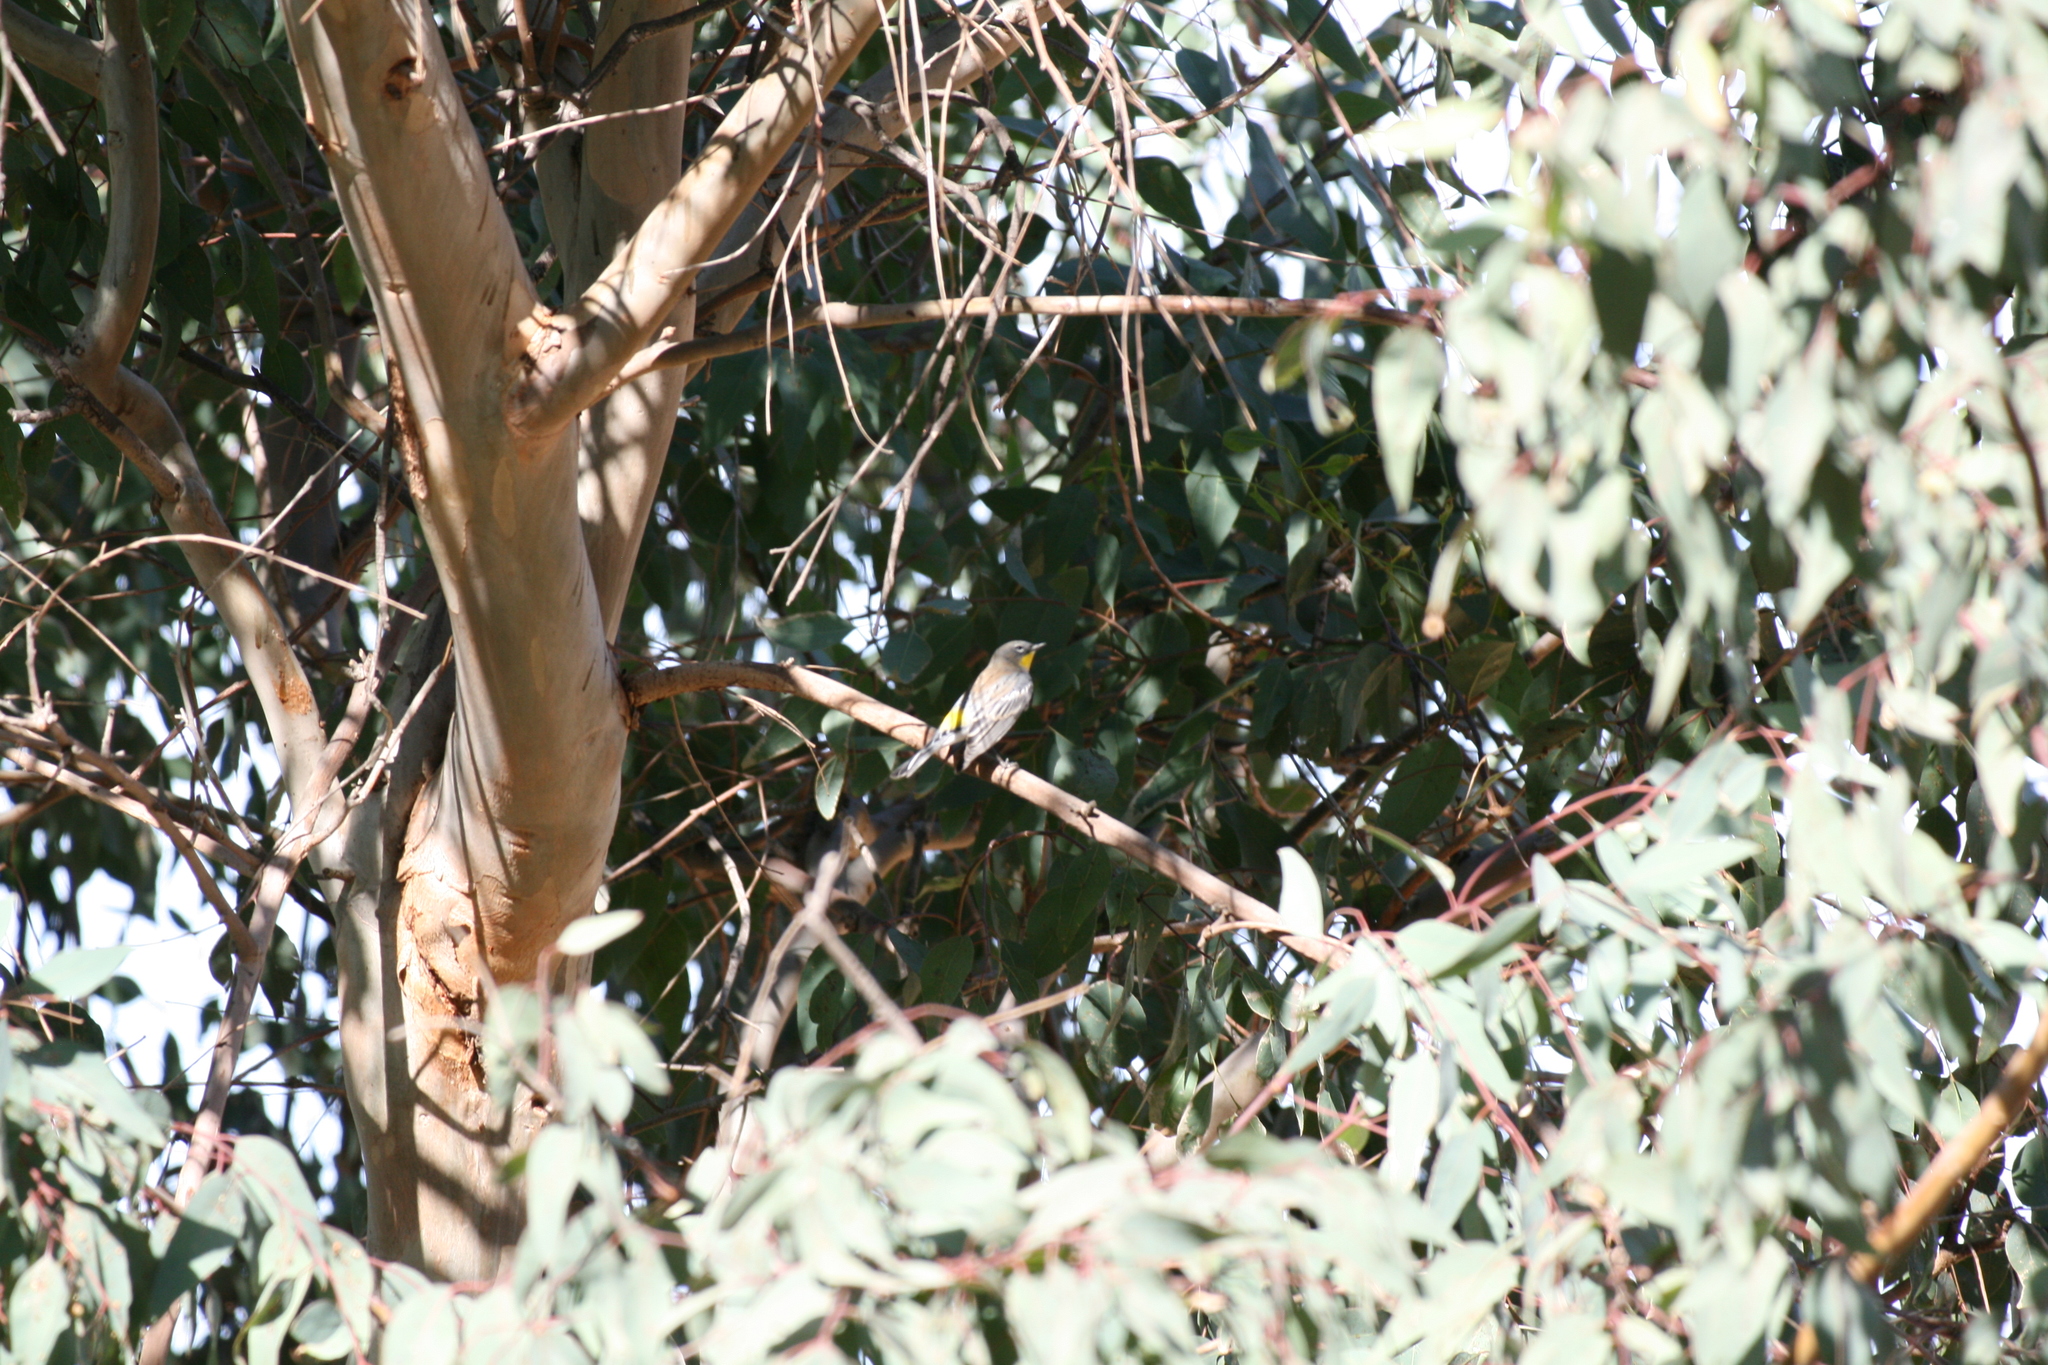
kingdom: Animalia
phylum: Chordata
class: Aves
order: Passeriformes
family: Parulidae
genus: Setophaga
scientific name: Setophaga coronata
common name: Myrtle warbler
